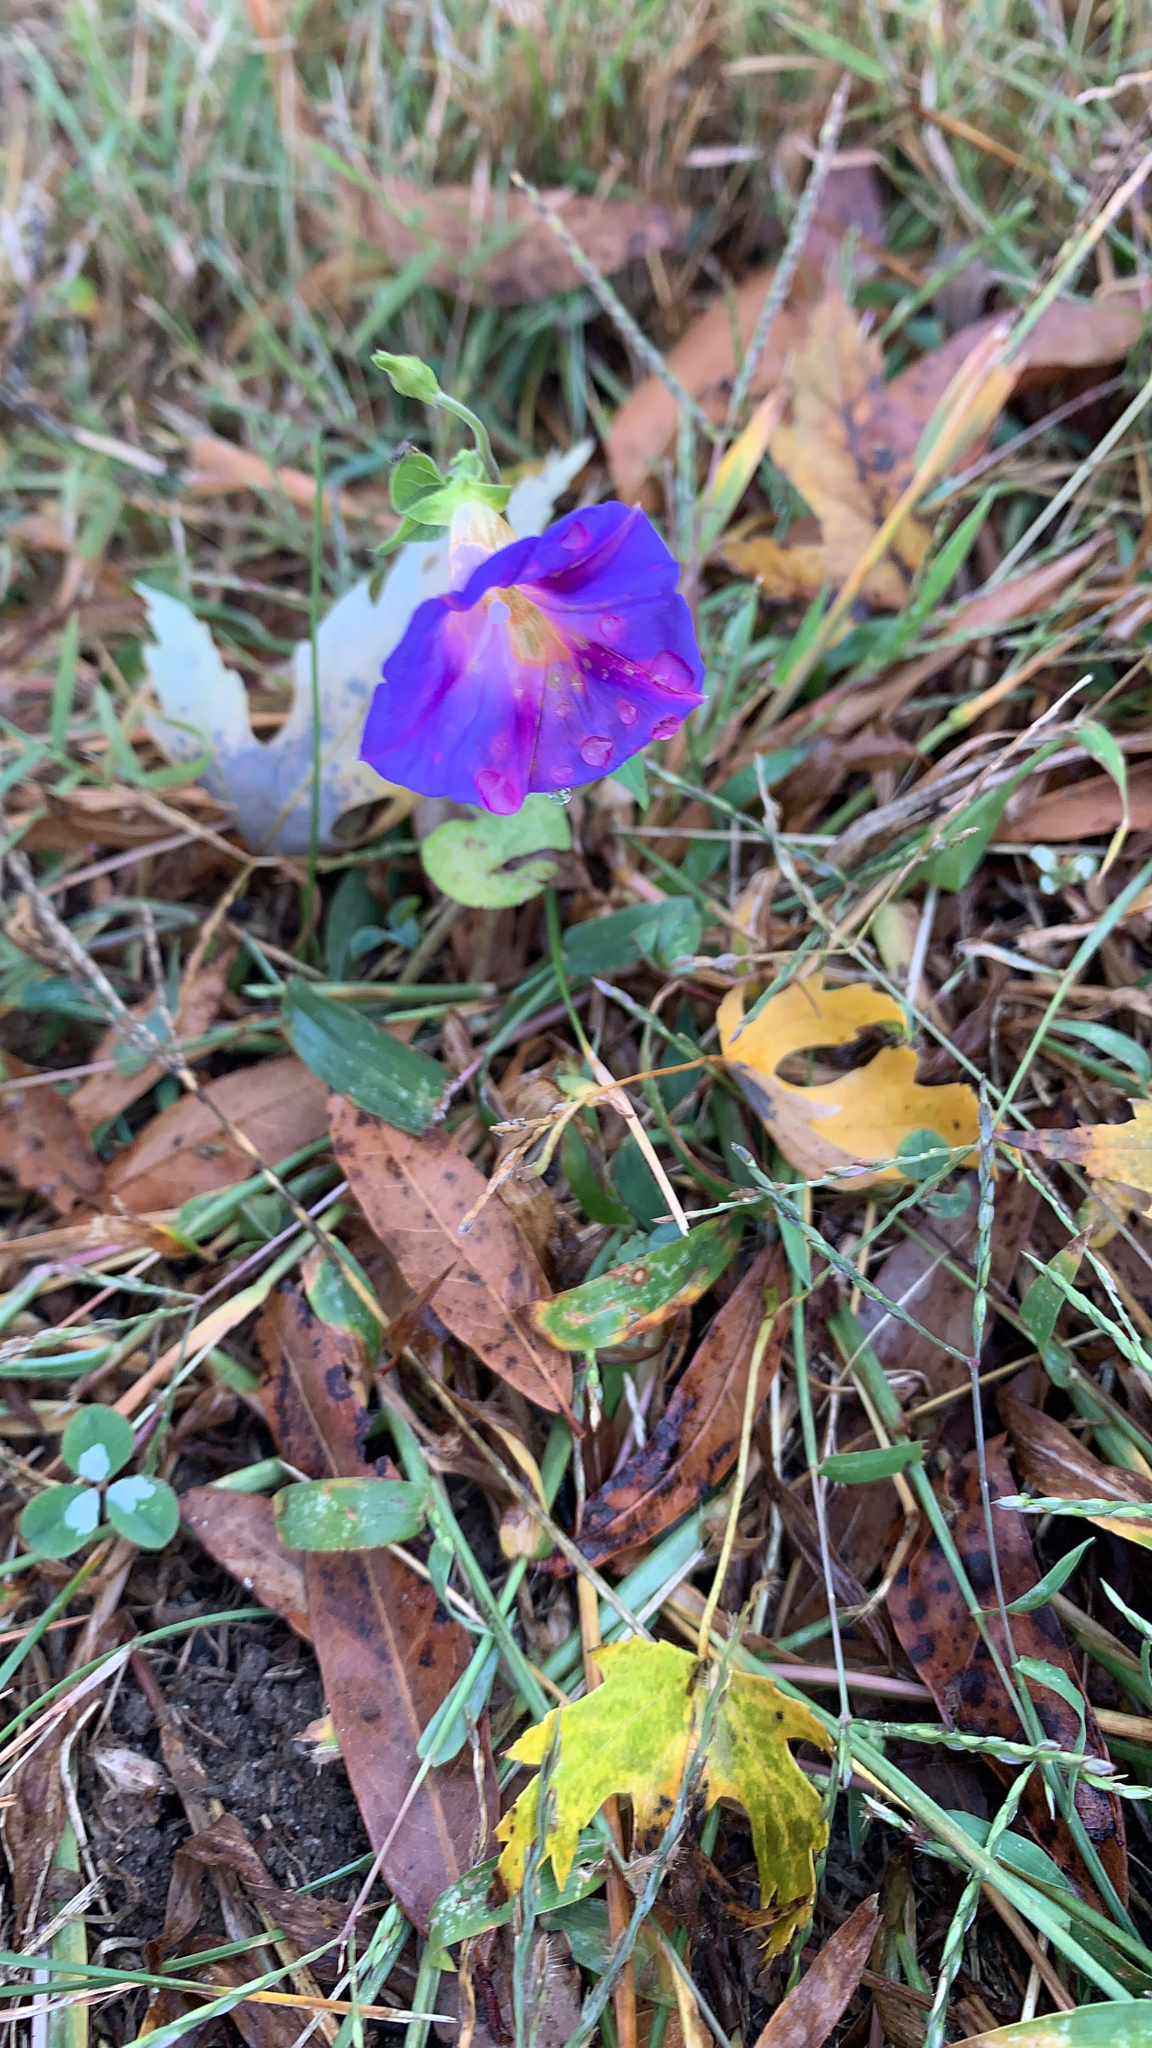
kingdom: Plantae
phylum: Tracheophyta
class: Magnoliopsida
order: Solanales
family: Convolvulaceae
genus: Ipomoea
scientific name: Ipomoea purpurea
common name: Common morning-glory
